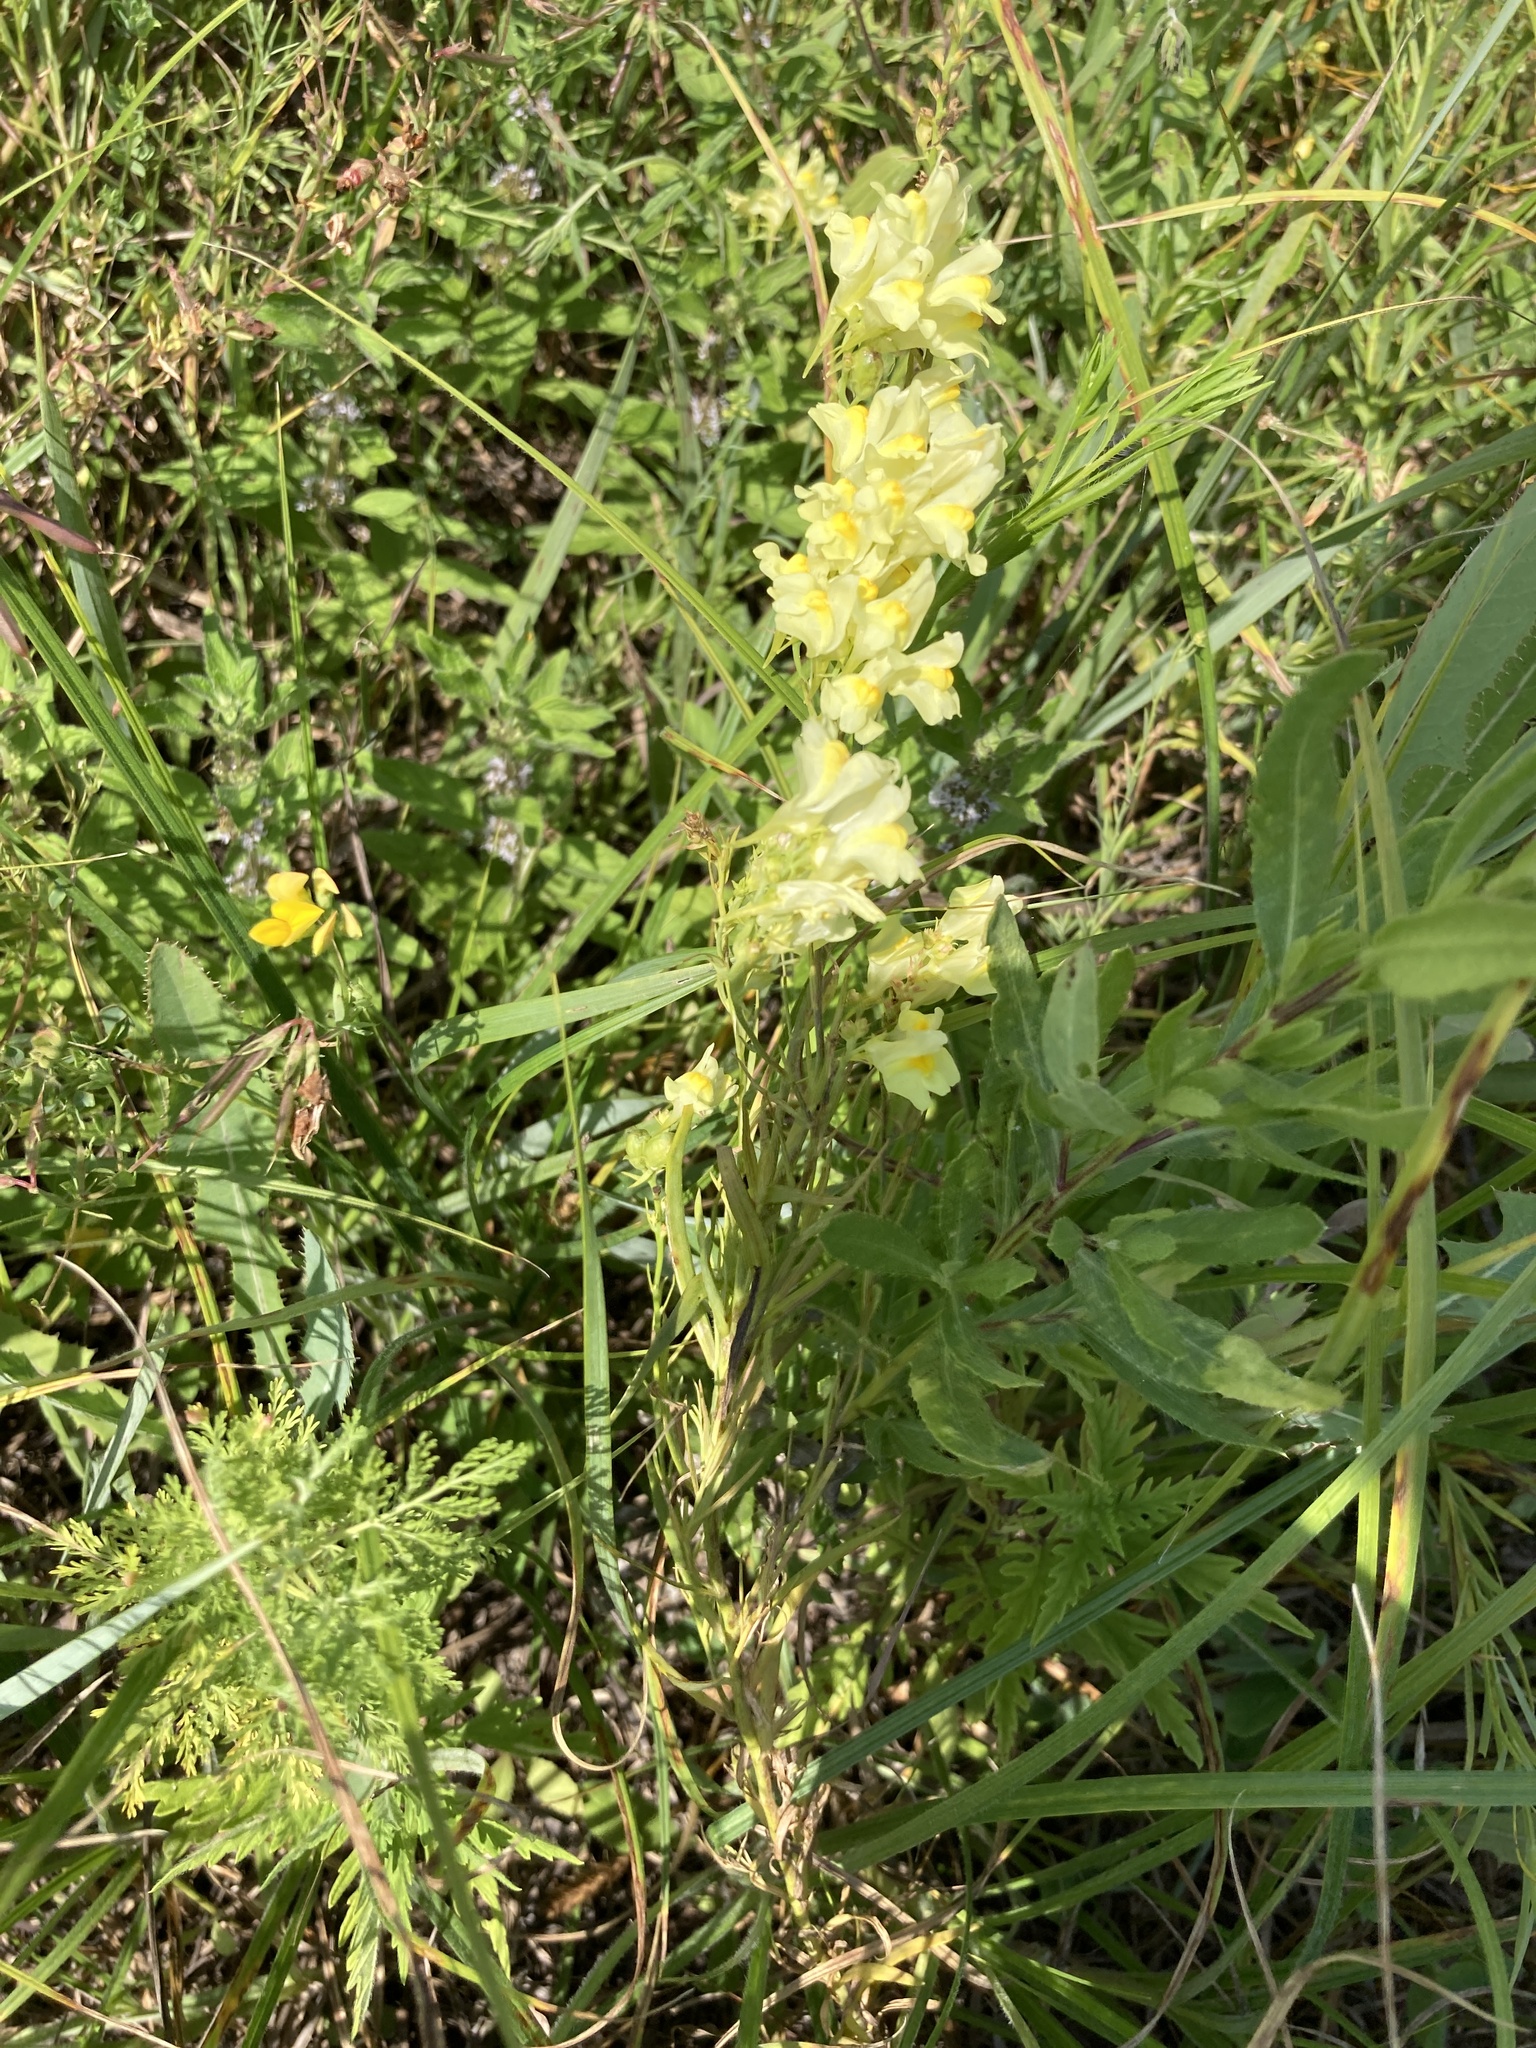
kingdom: Plantae
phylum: Tracheophyta
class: Magnoliopsida
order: Lamiales
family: Plantaginaceae
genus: Linaria
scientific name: Linaria vulgaris
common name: Butter and eggs
